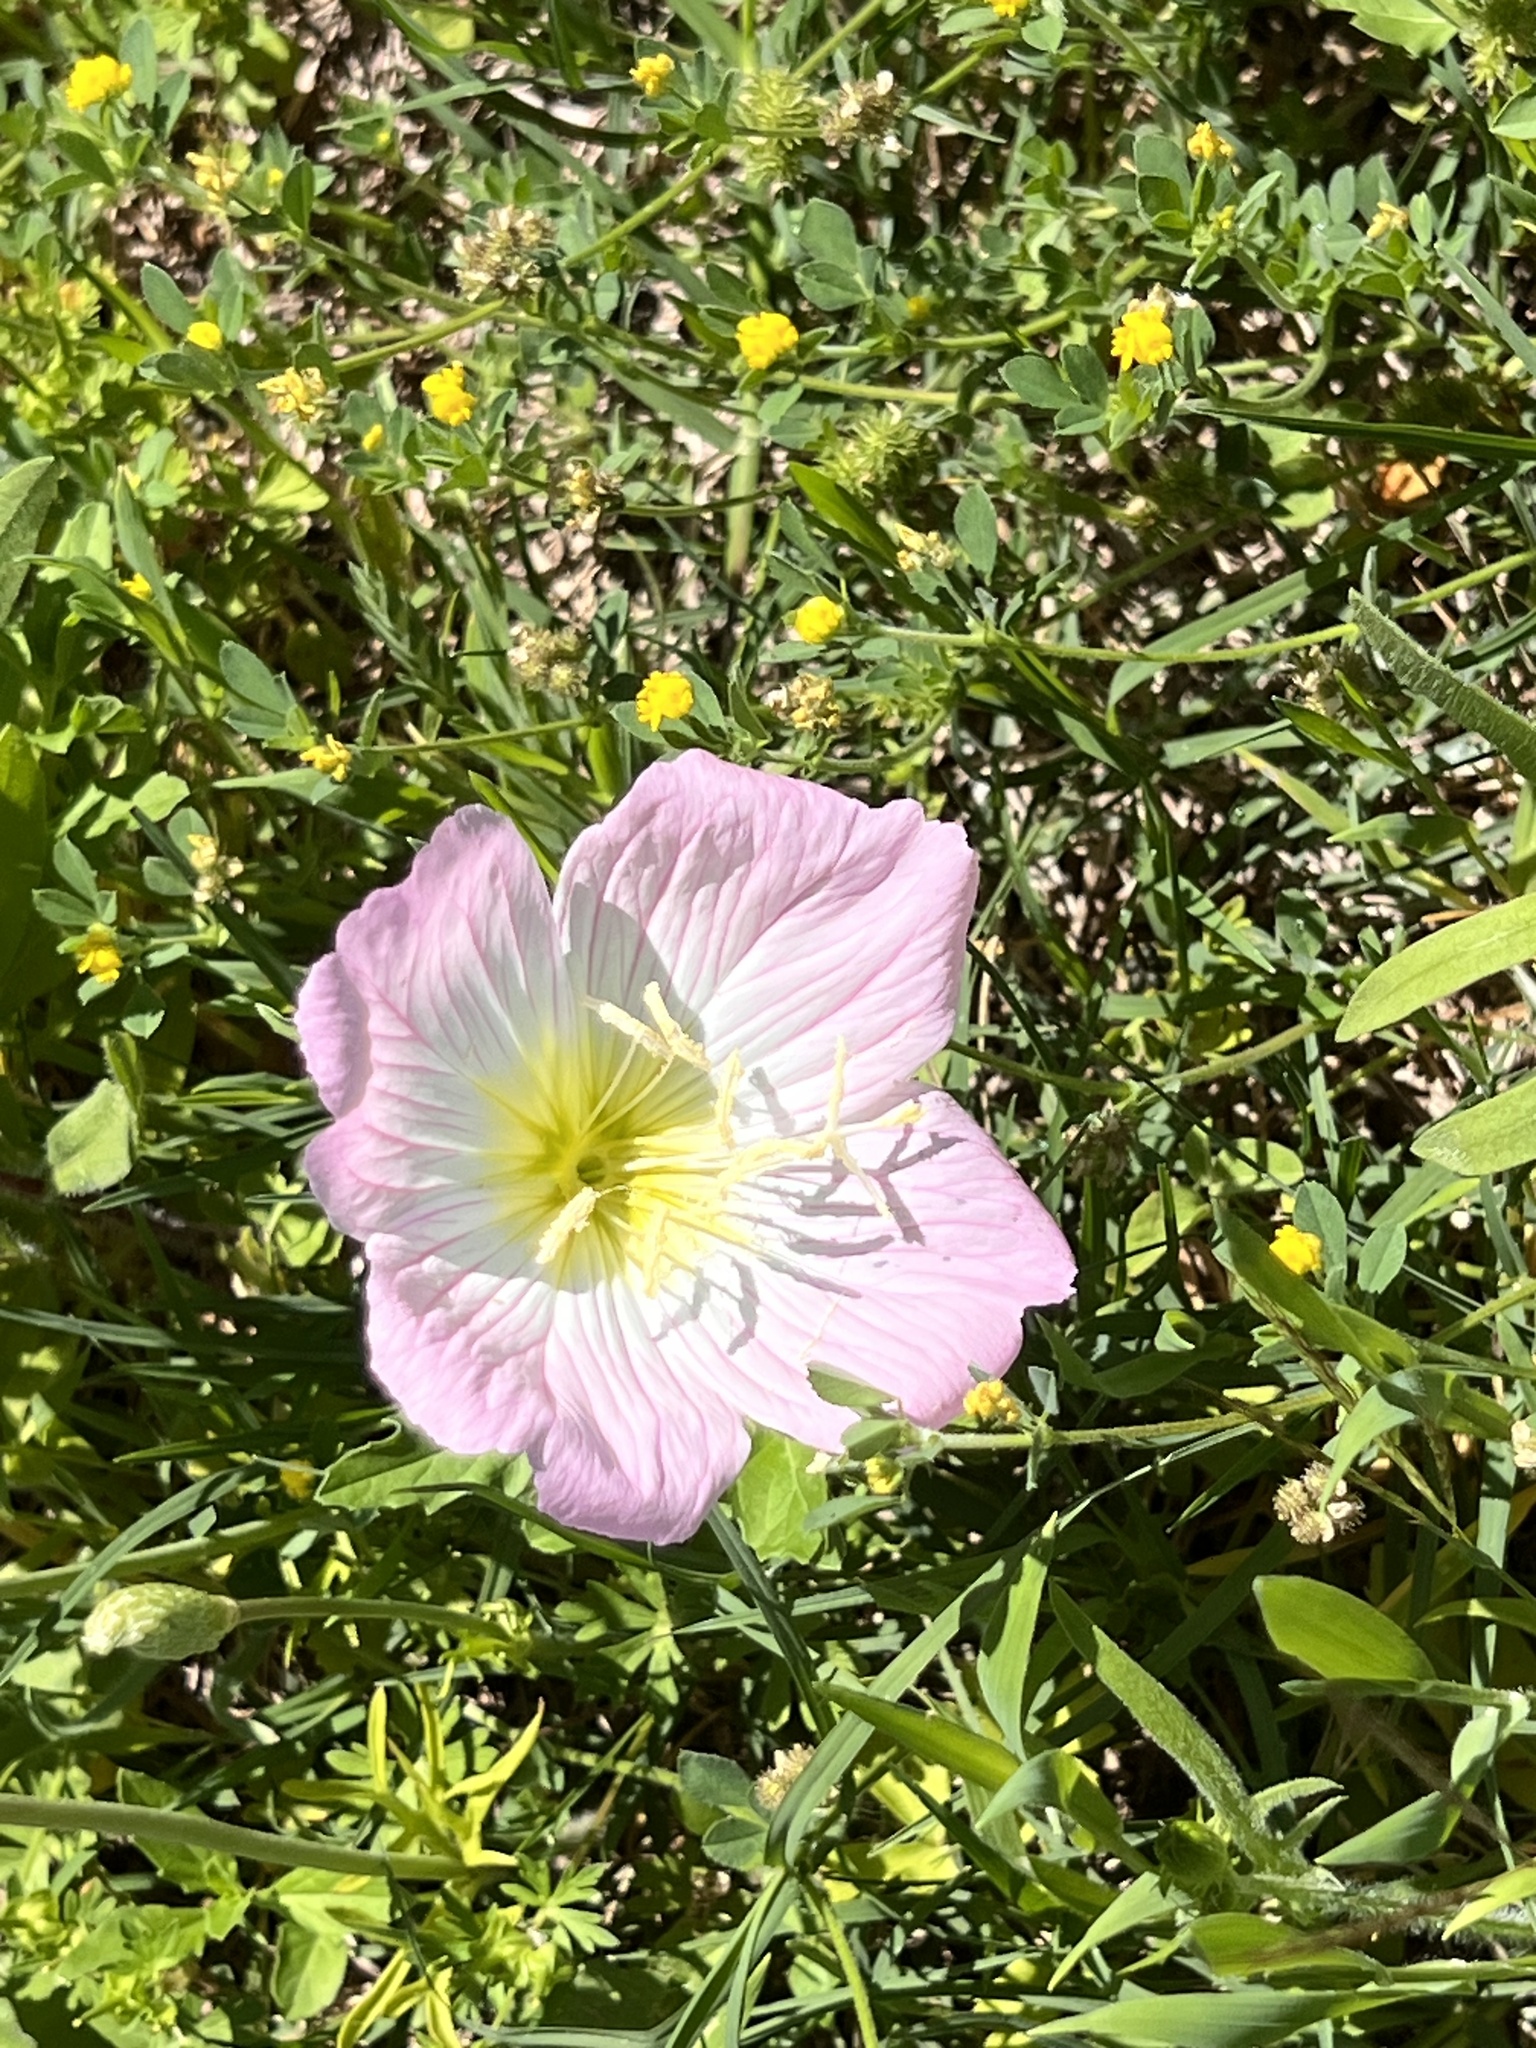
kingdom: Plantae
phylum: Tracheophyta
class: Magnoliopsida
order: Myrtales
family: Onagraceae
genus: Oenothera
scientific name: Oenothera speciosa
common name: White evening-primrose
